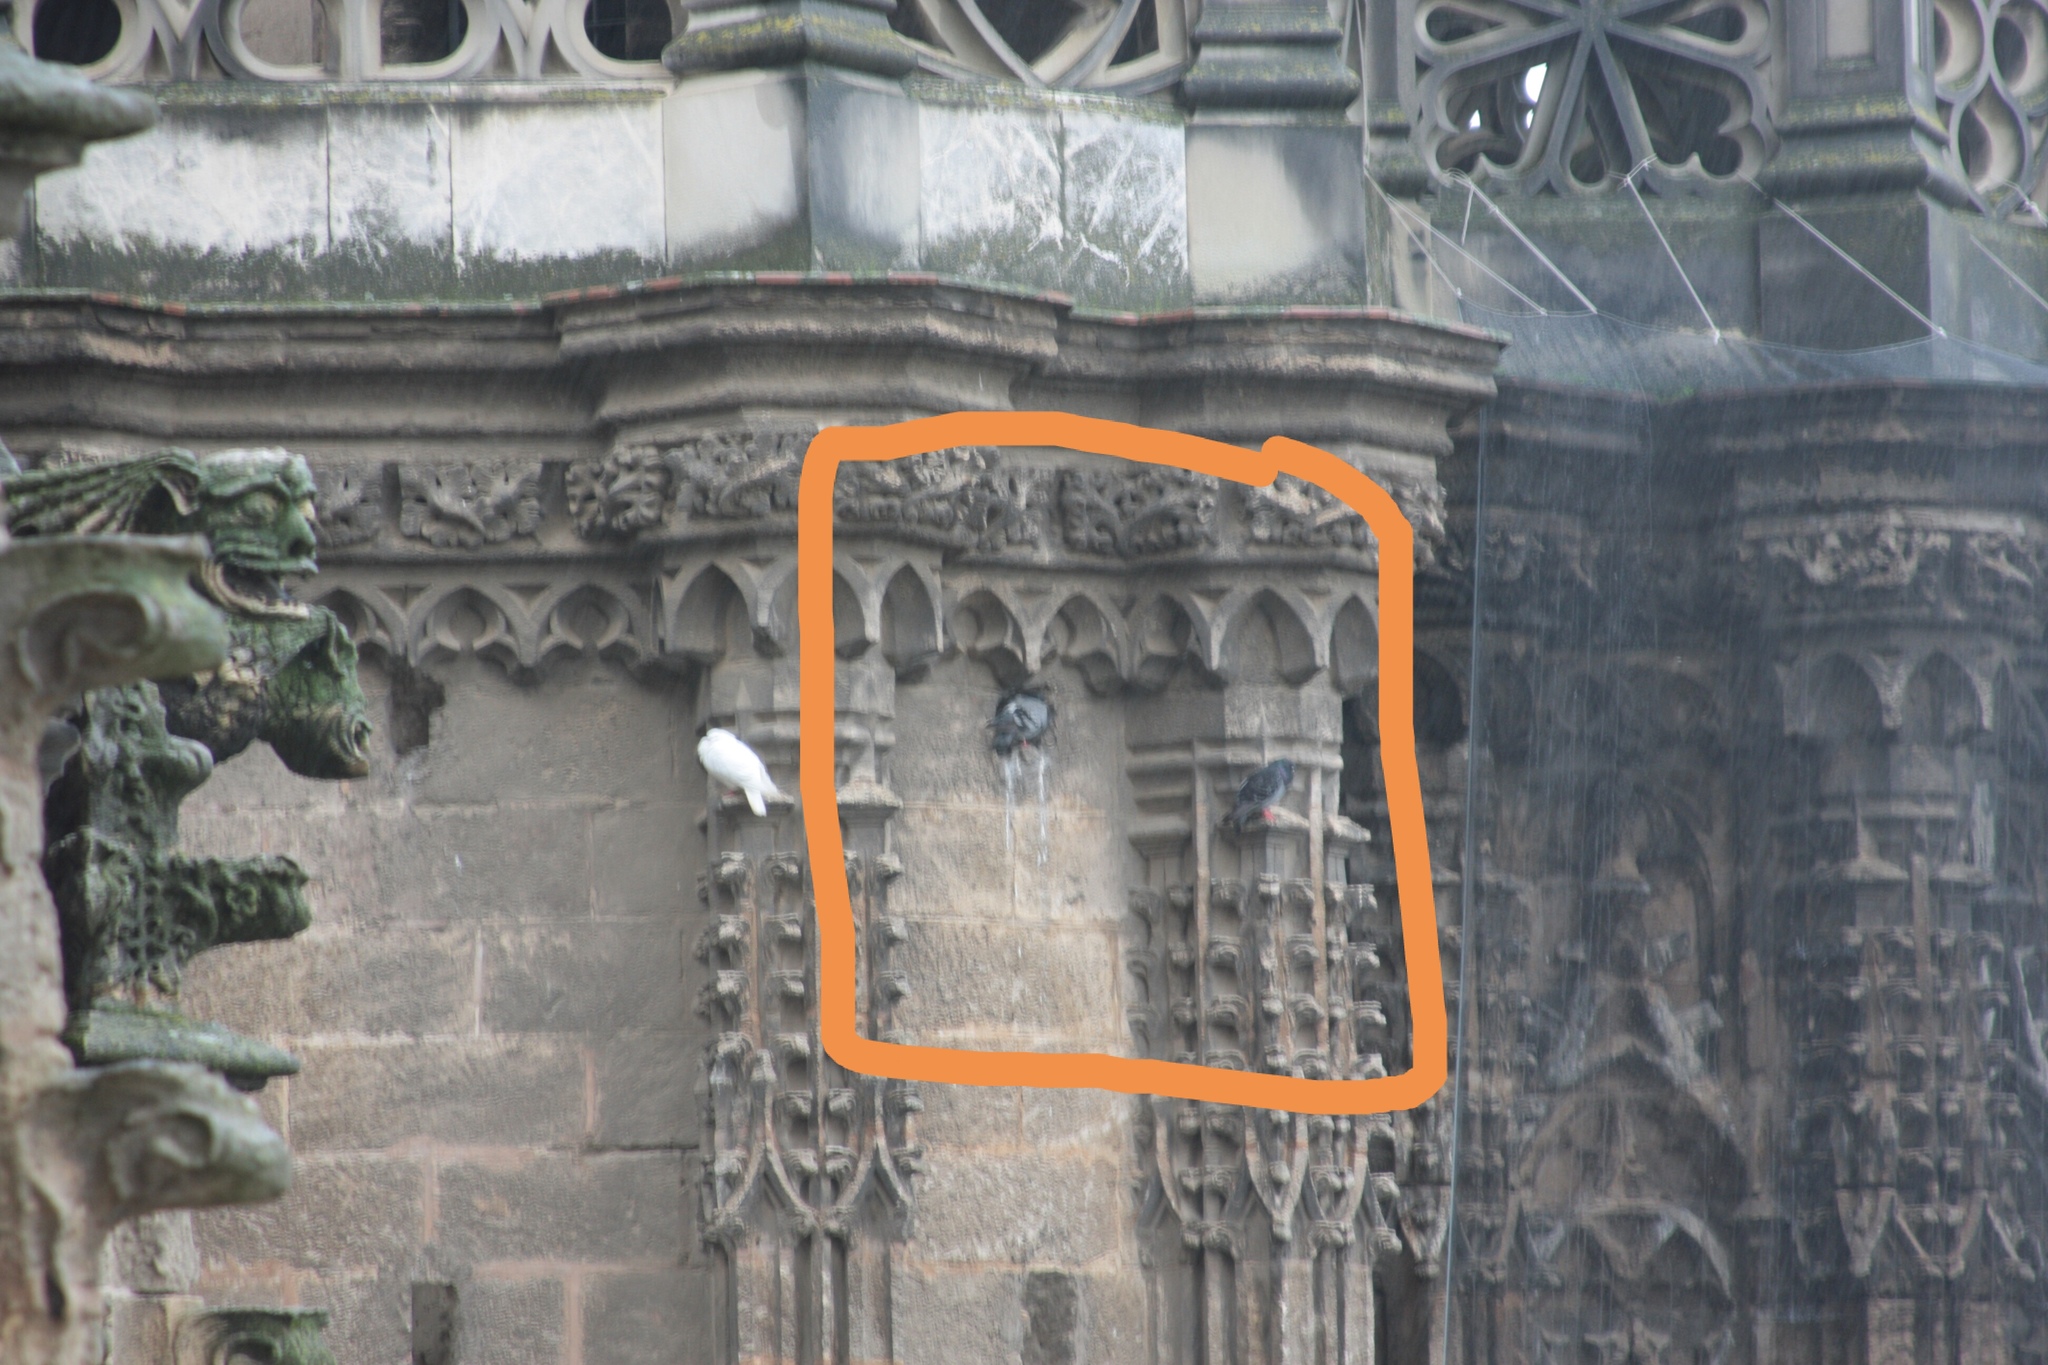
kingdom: Animalia
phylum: Chordata
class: Aves
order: Columbiformes
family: Columbidae
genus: Columba
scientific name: Columba livia
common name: Rock pigeon
